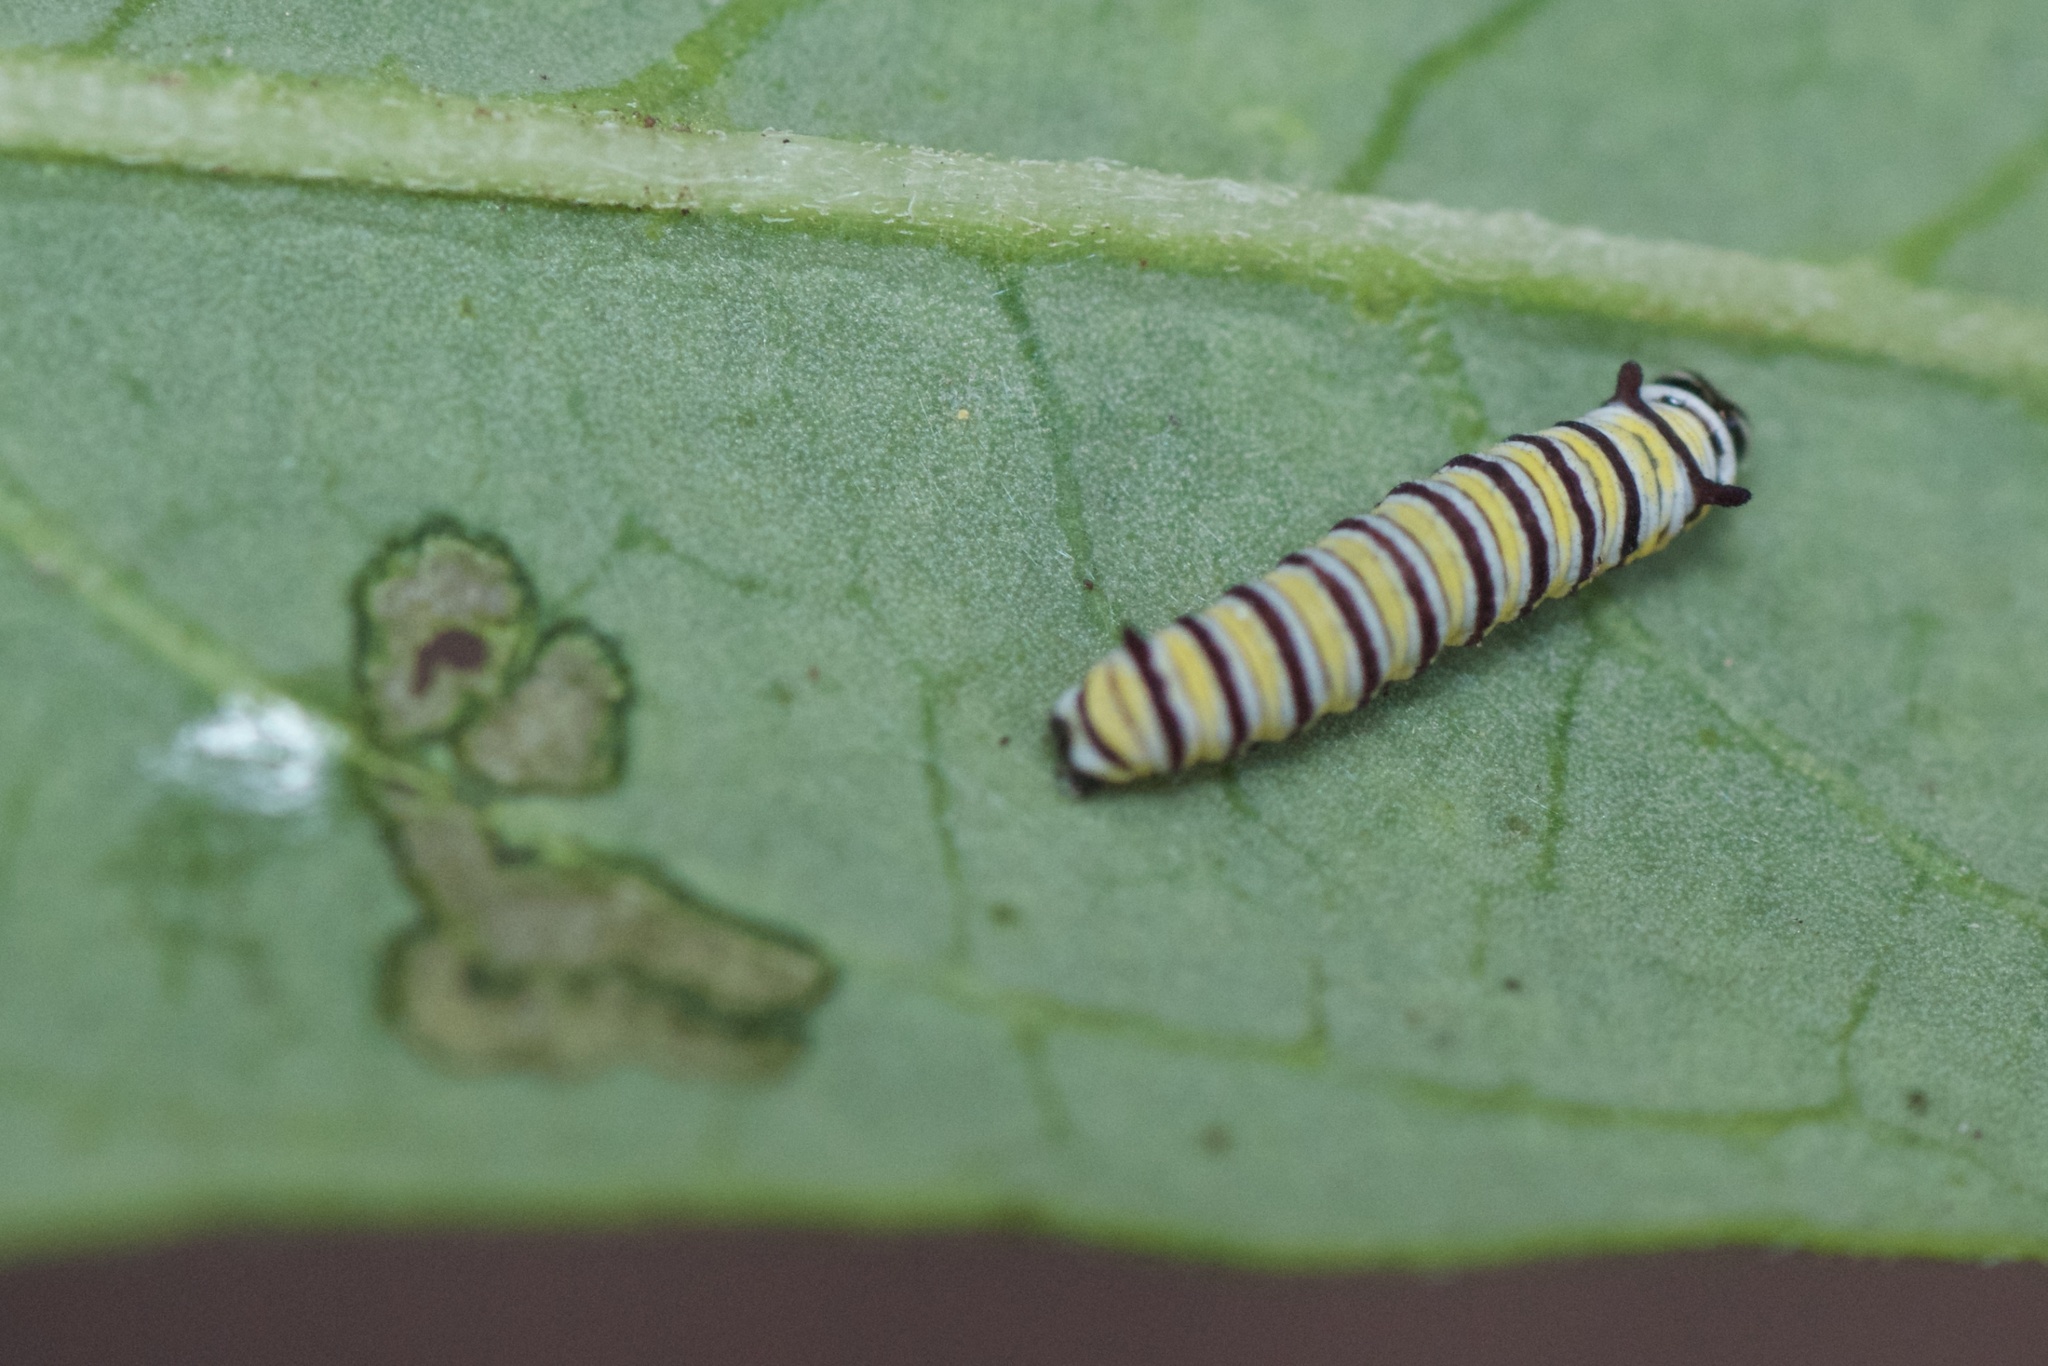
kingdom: Animalia
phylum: Arthropoda
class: Insecta
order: Lepidoptera
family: Nymphalidae
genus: Danaus
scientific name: Danaus plexippus
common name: Monarch
